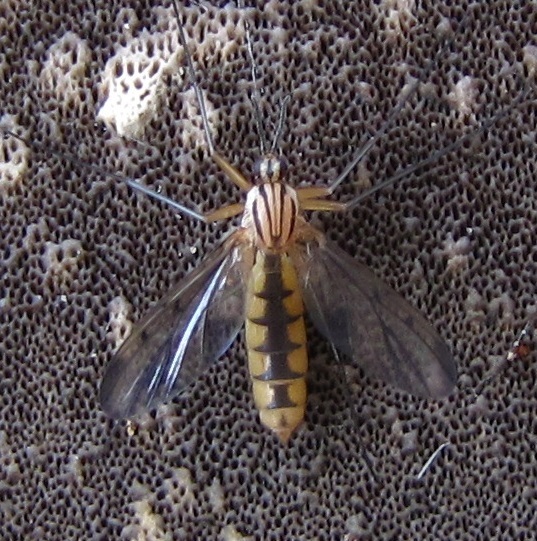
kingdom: Animalia
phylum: Arthropoda
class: Insecta
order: Diptera
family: Mycetophilidae
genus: Neoempheria
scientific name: Neoempheria balioptera
